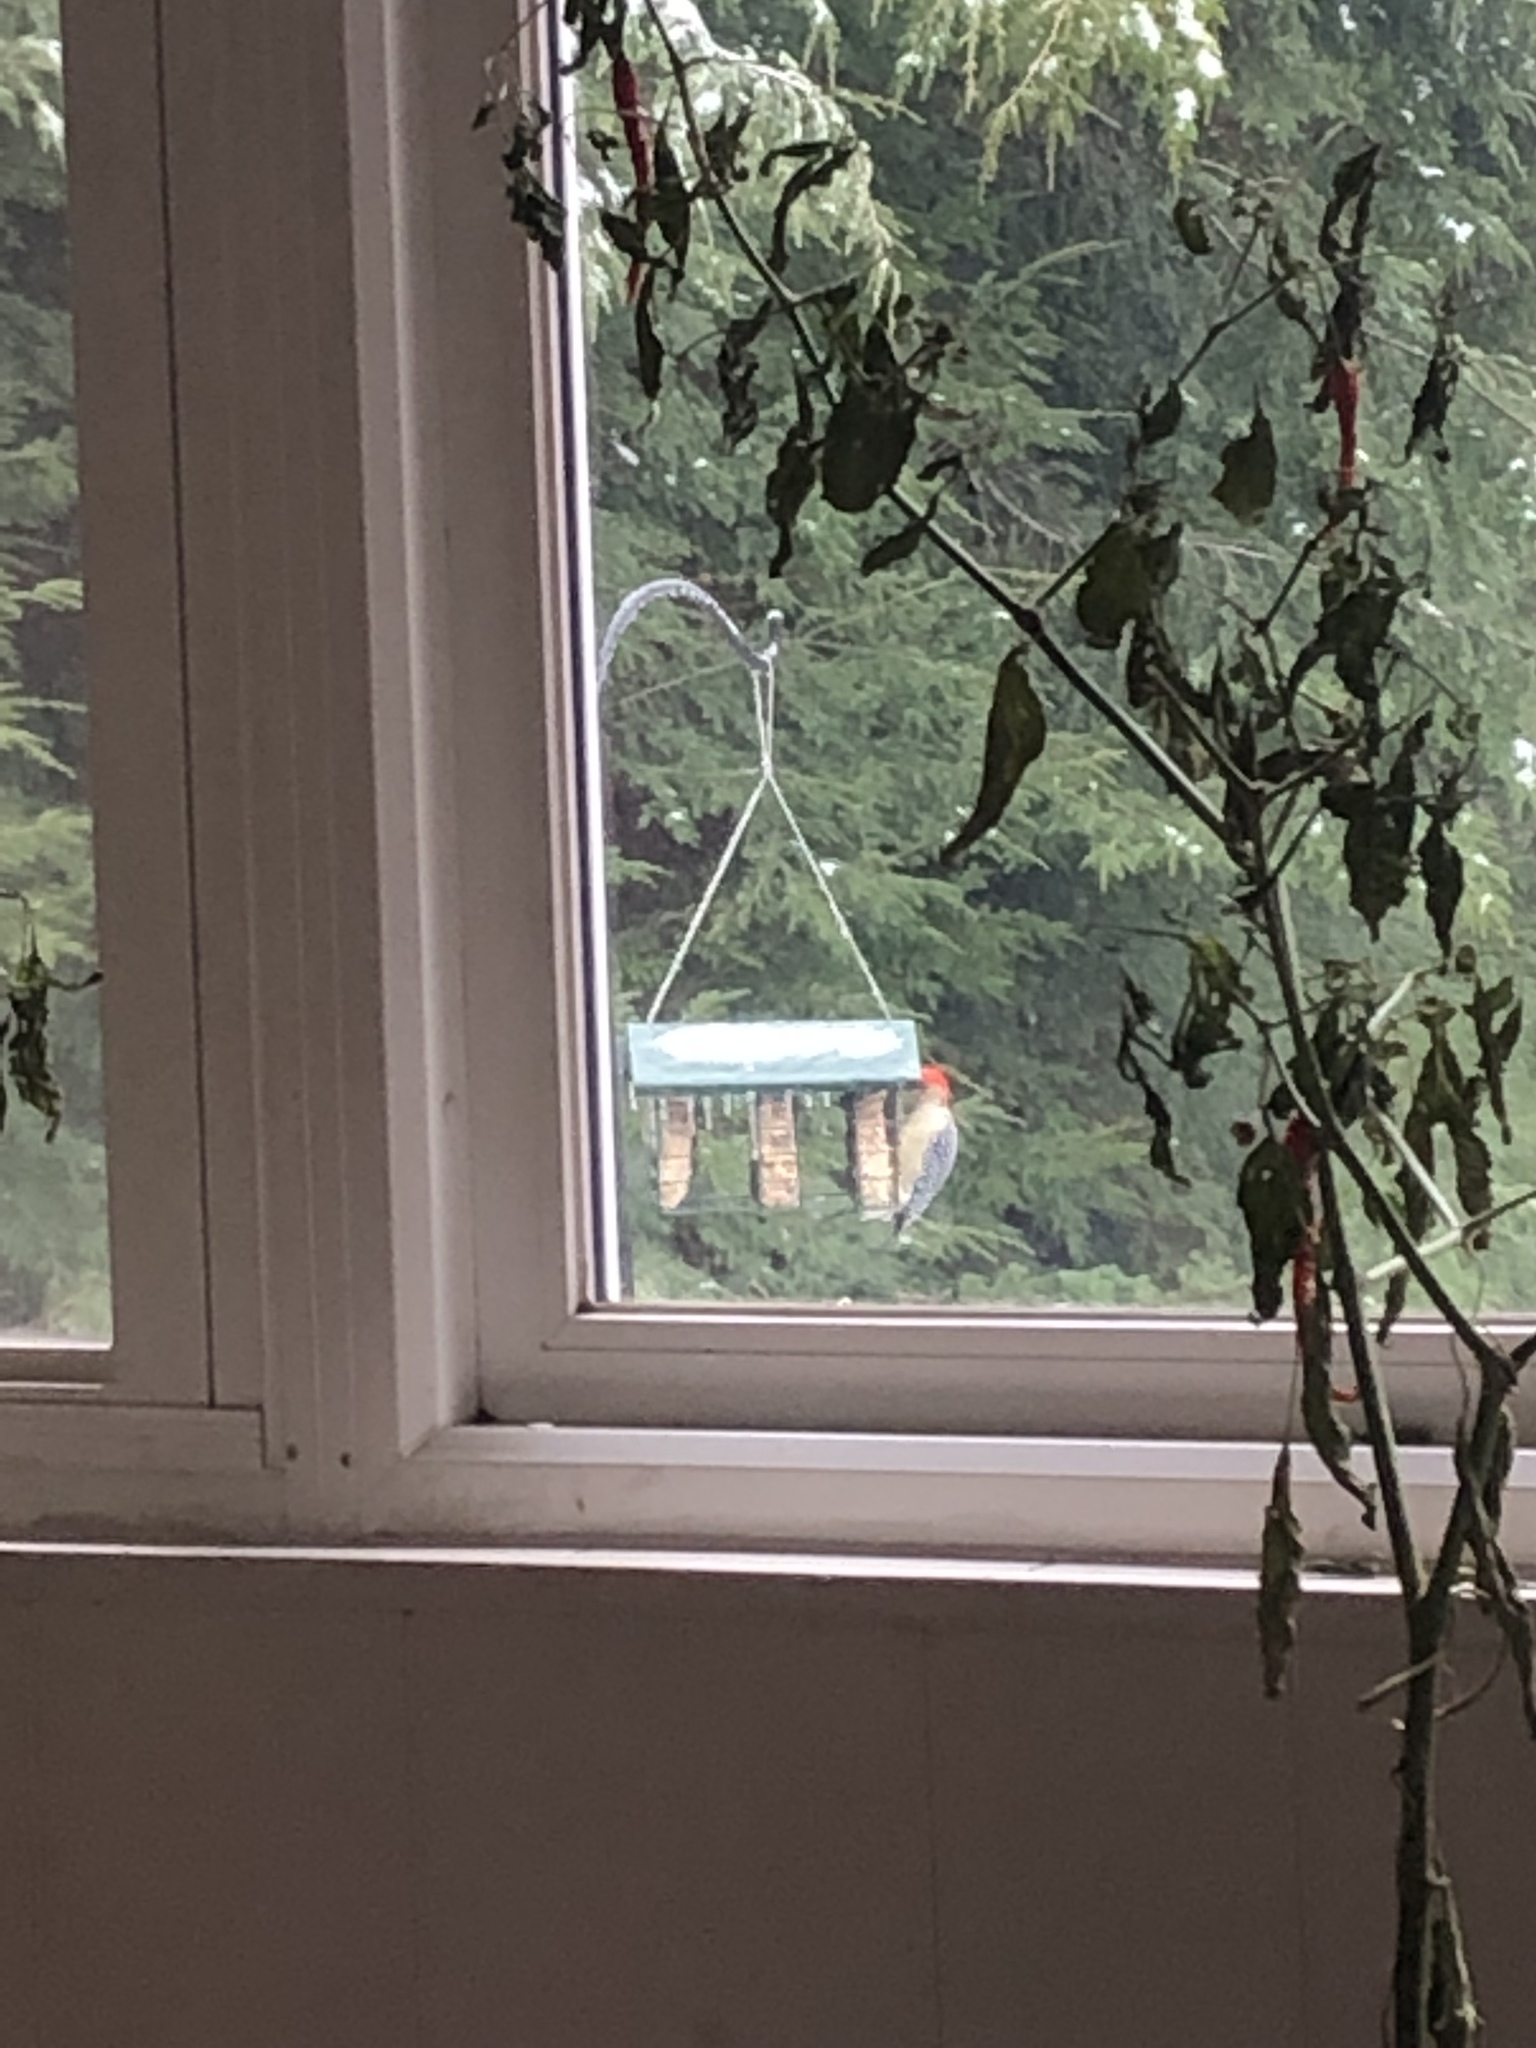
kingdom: Animalia
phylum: Chordata
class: Aves
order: Piciformes
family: Picidae
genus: Melanerpes
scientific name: Melanerpes carolinus
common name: Red-bellied woodpecker
